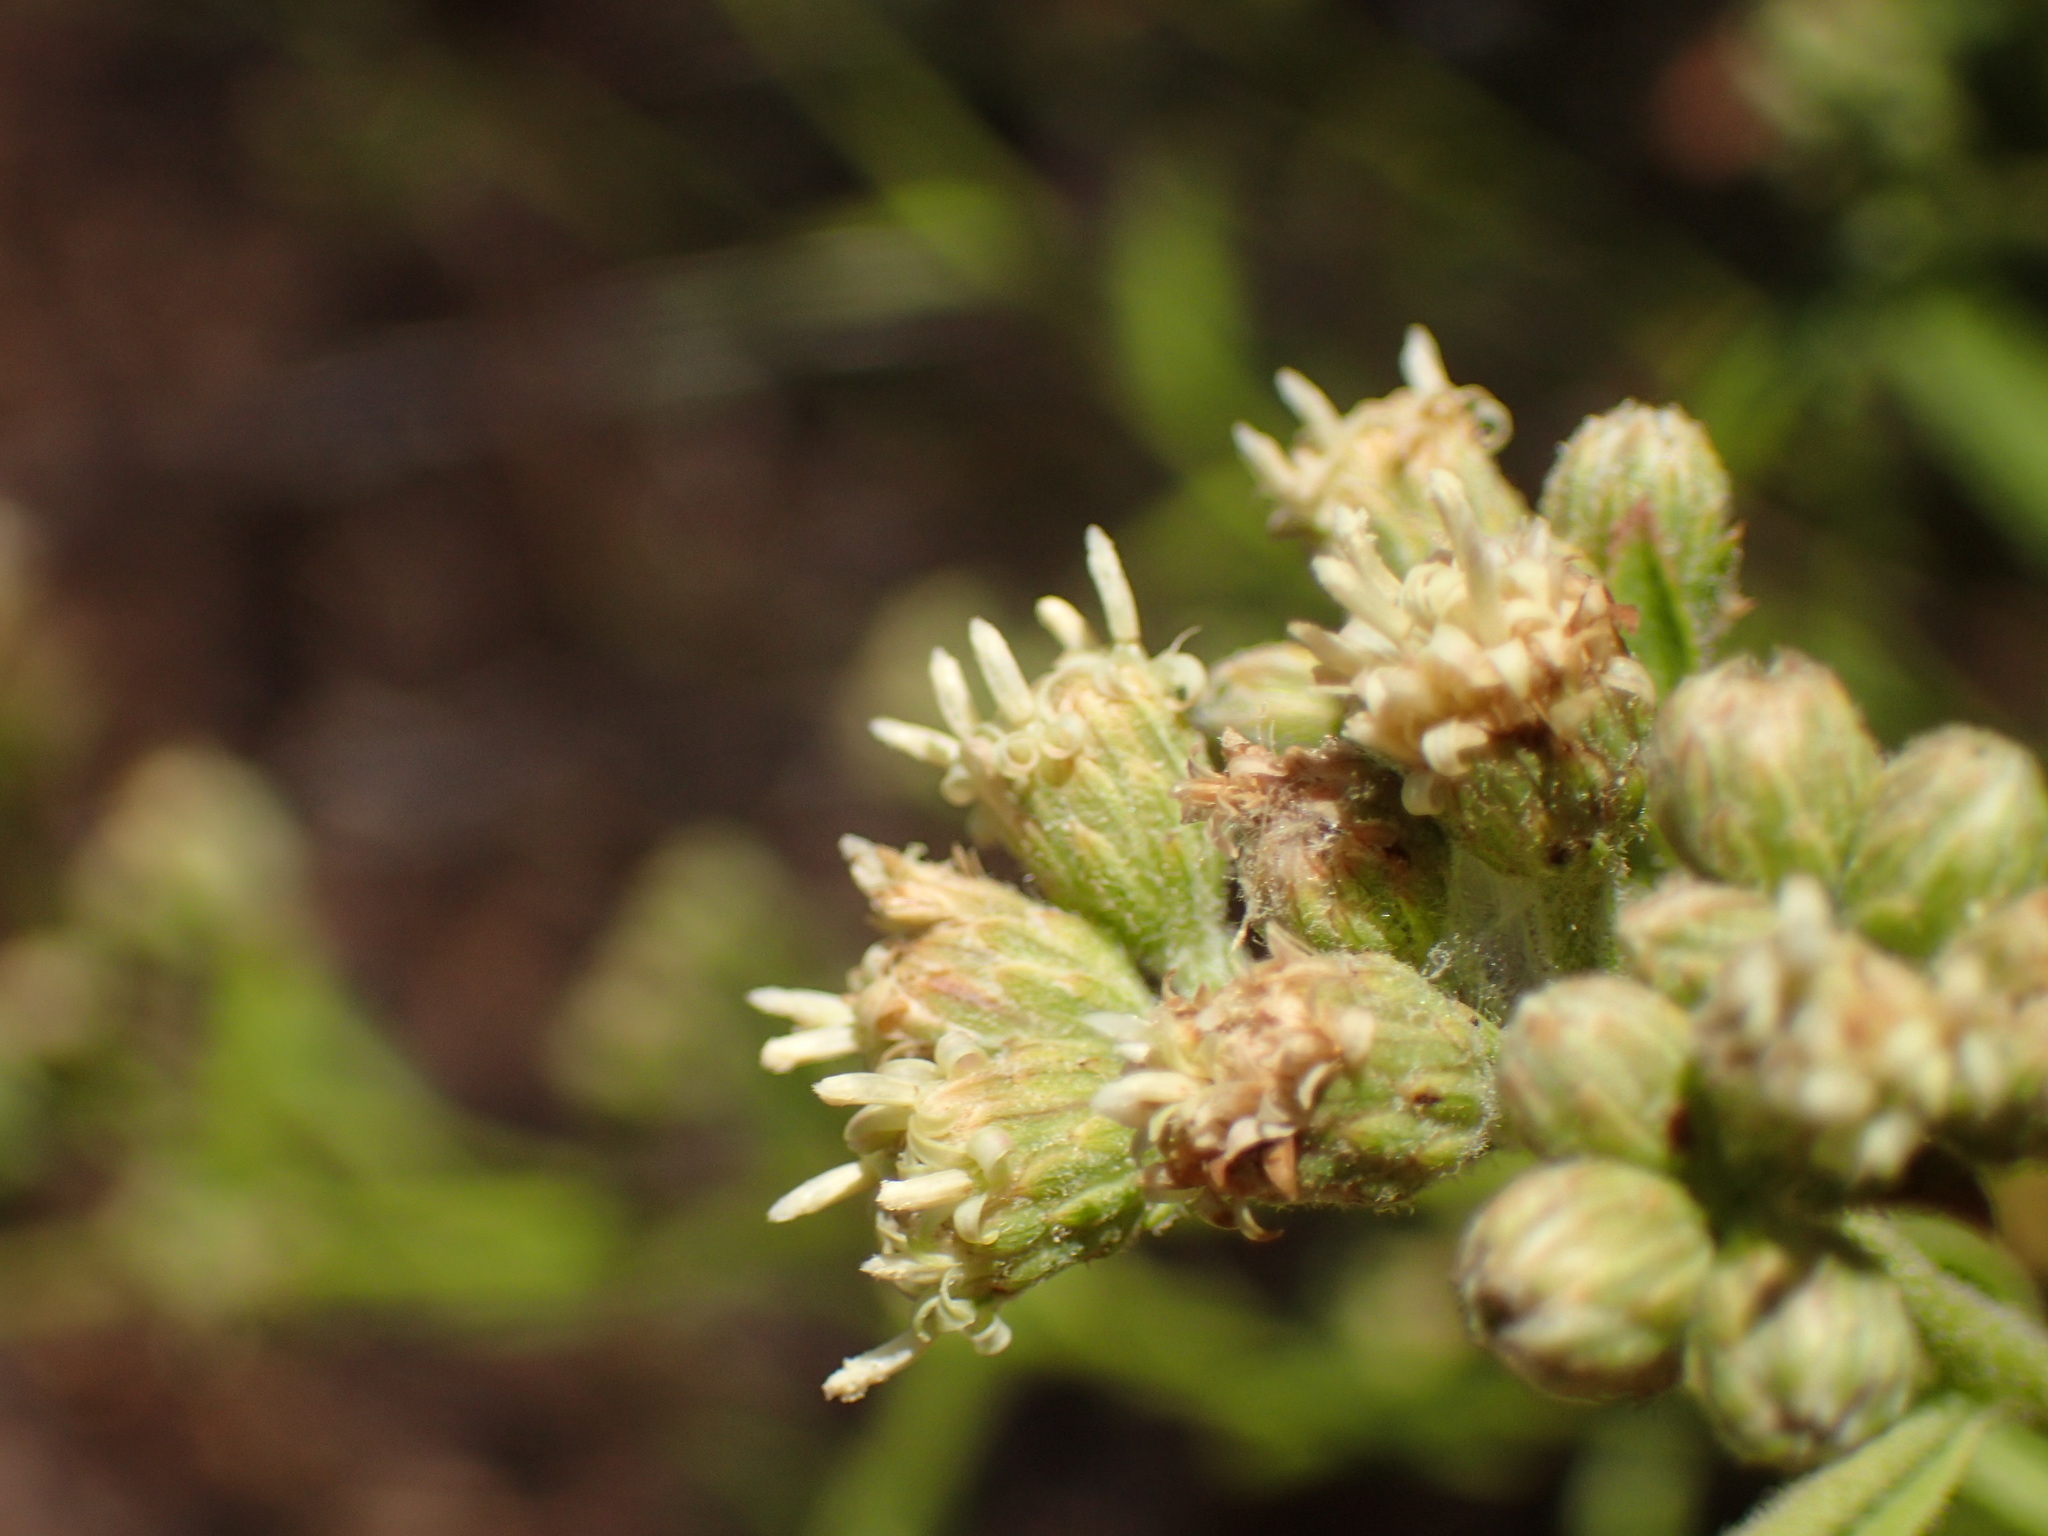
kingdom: Plantae
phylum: Tracheophyta
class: Magnoliopsida
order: Asterales
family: Asteraceae
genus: Baccharis
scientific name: Baccharis plummerae
